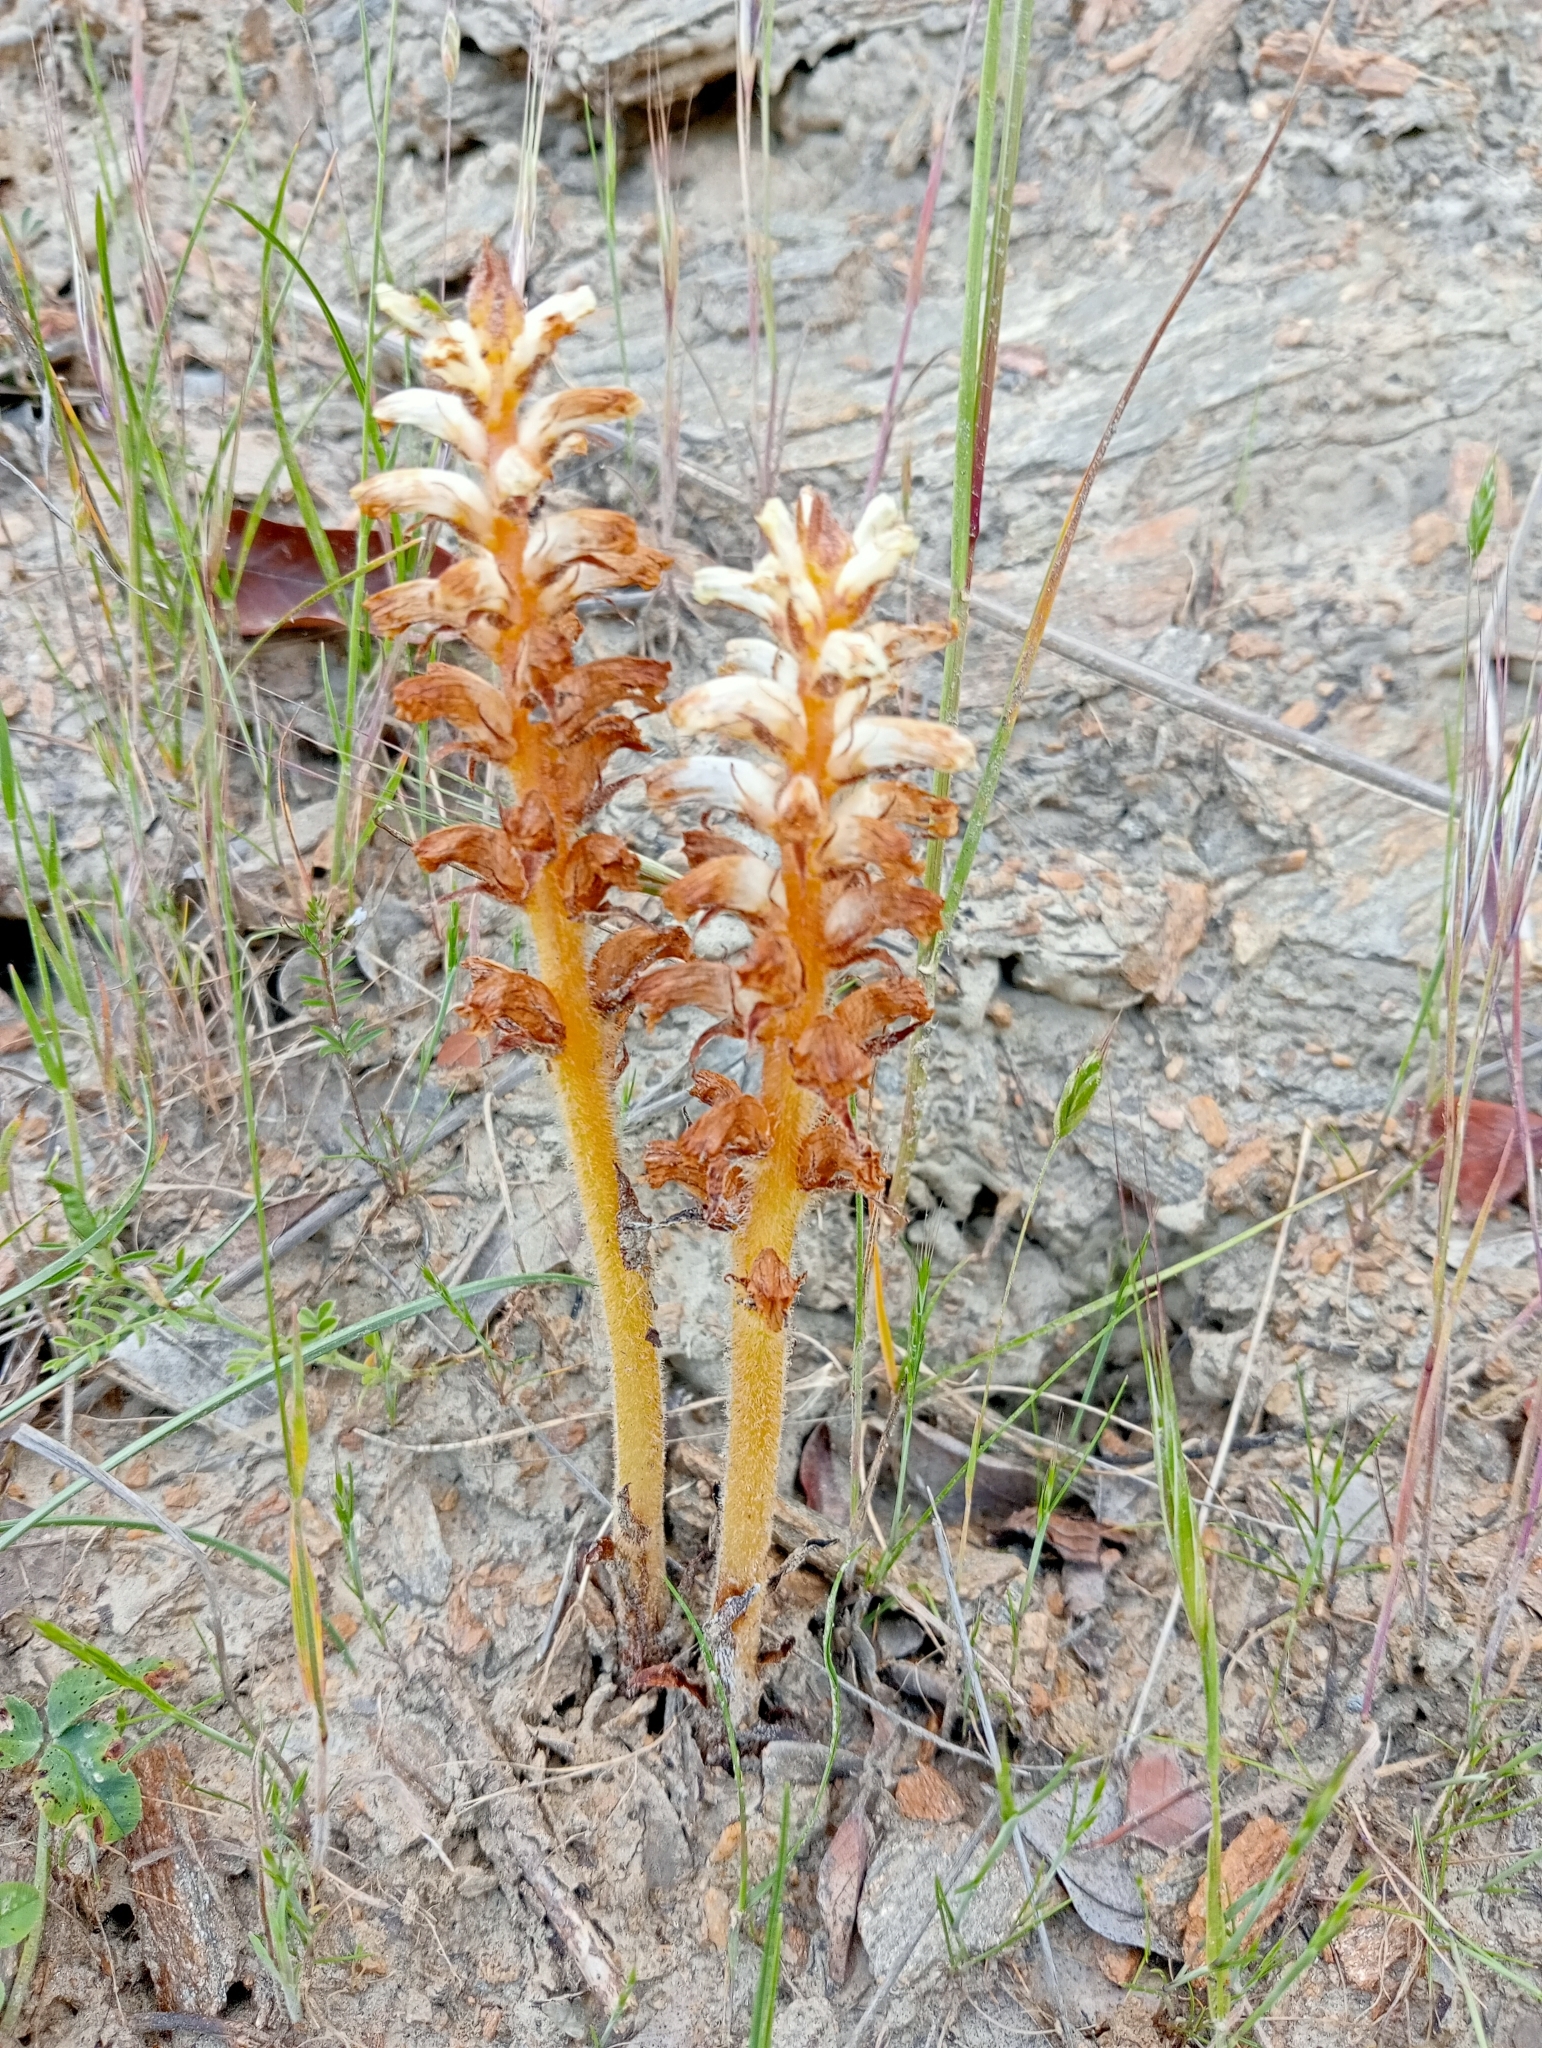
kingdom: Plantae
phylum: Tracheophyta
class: Magnoliopsida
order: Lamiales
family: Orobanchaceae
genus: Orobanche
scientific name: Orobanche minor
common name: Common broomrape
